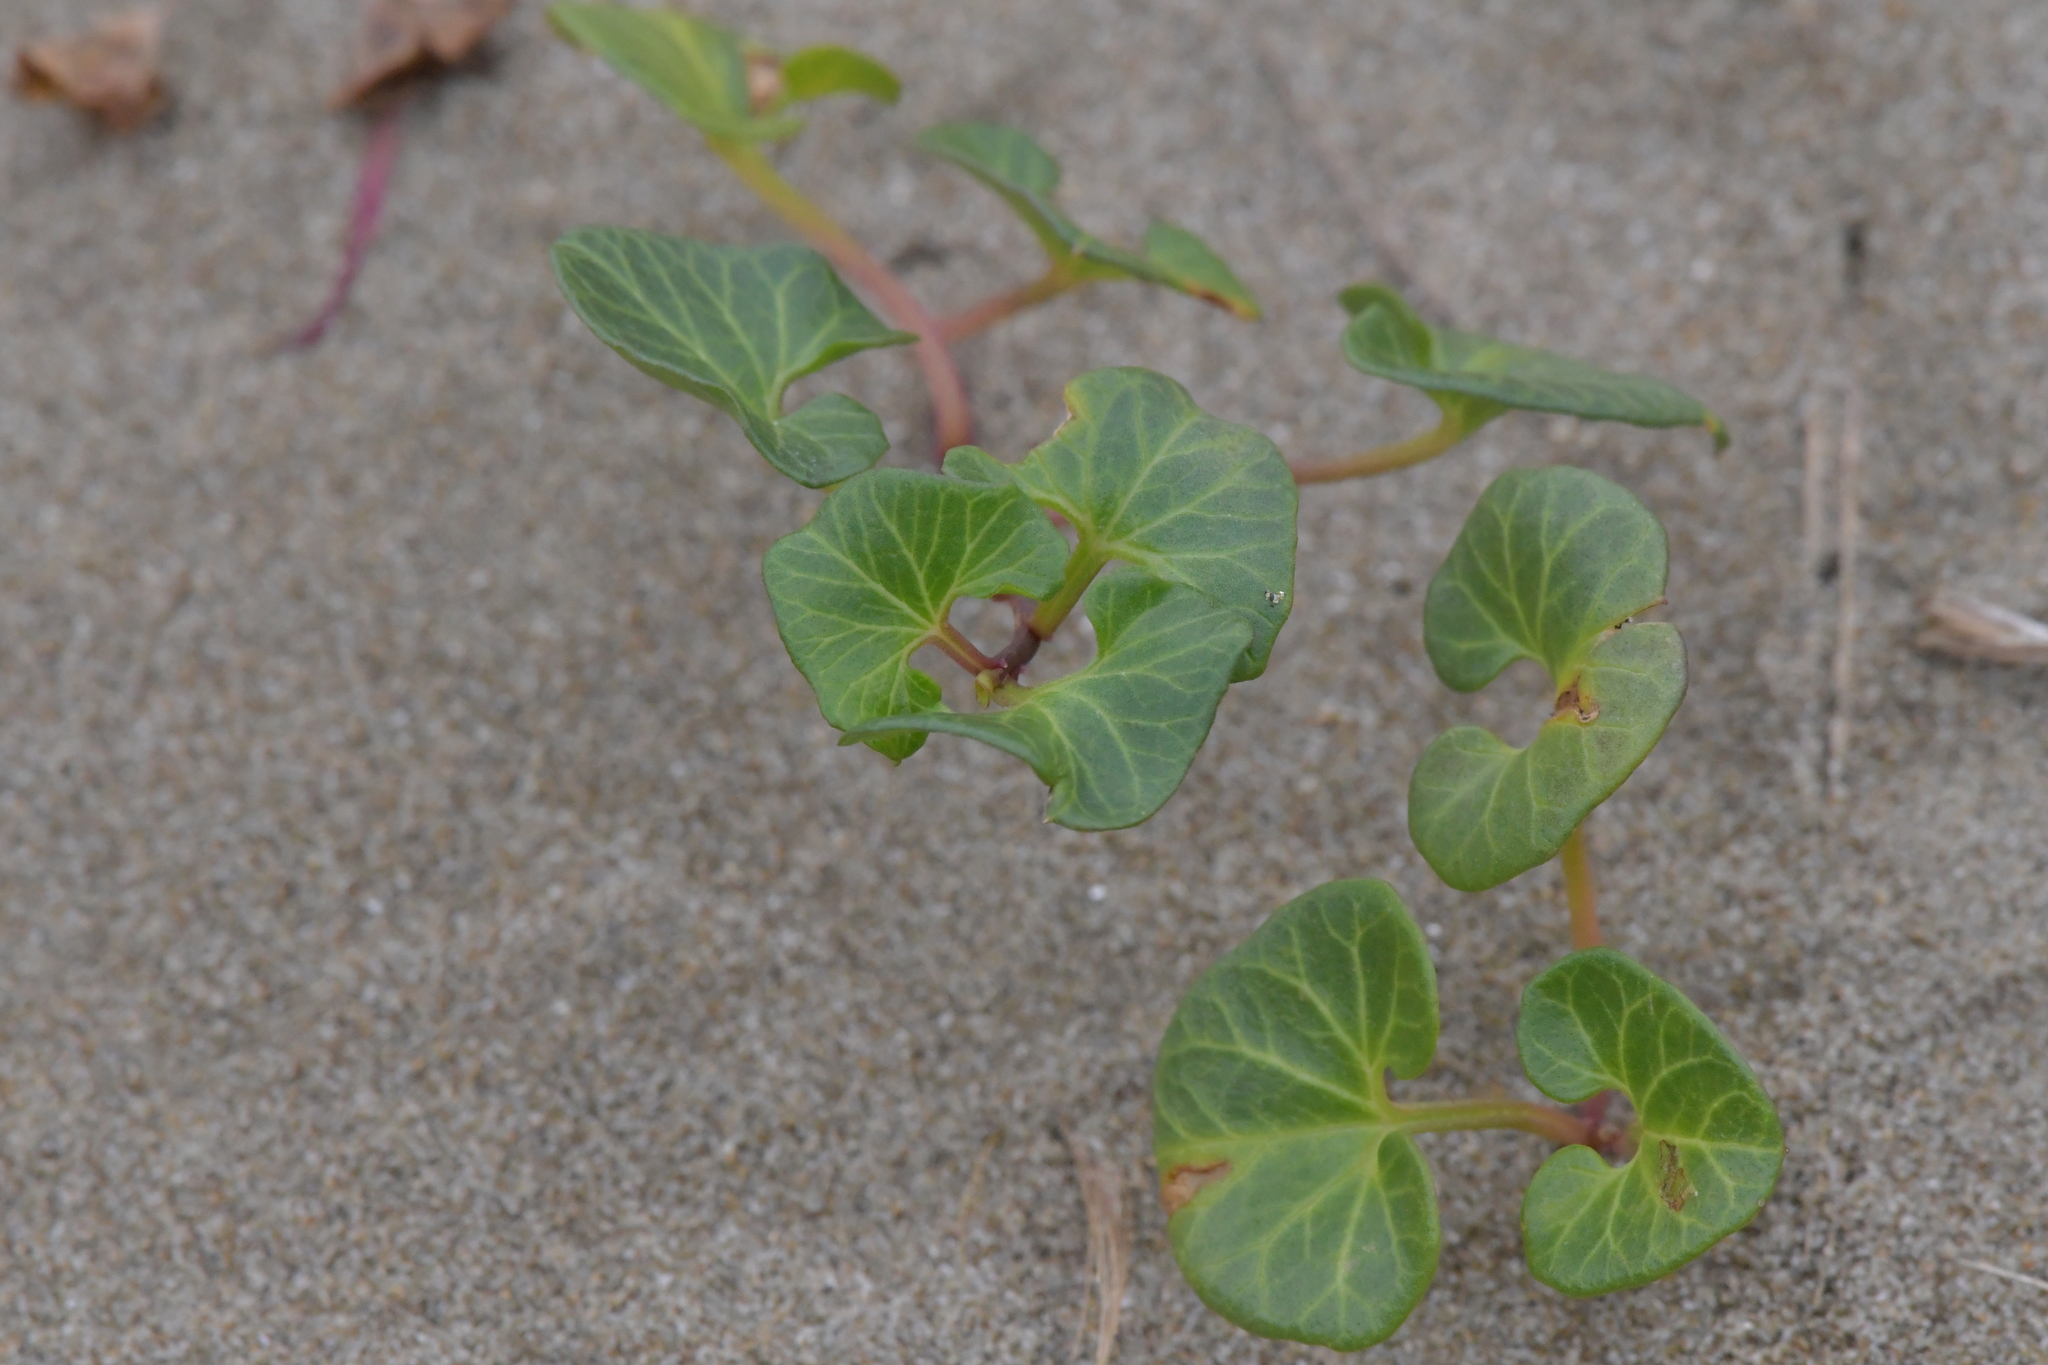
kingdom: Plantae
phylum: Tracheophyta
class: Magnoliopsida
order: Solanales
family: Convolvulaceae
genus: Calystegia
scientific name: Calystegia soldanella
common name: Sea bindweed
